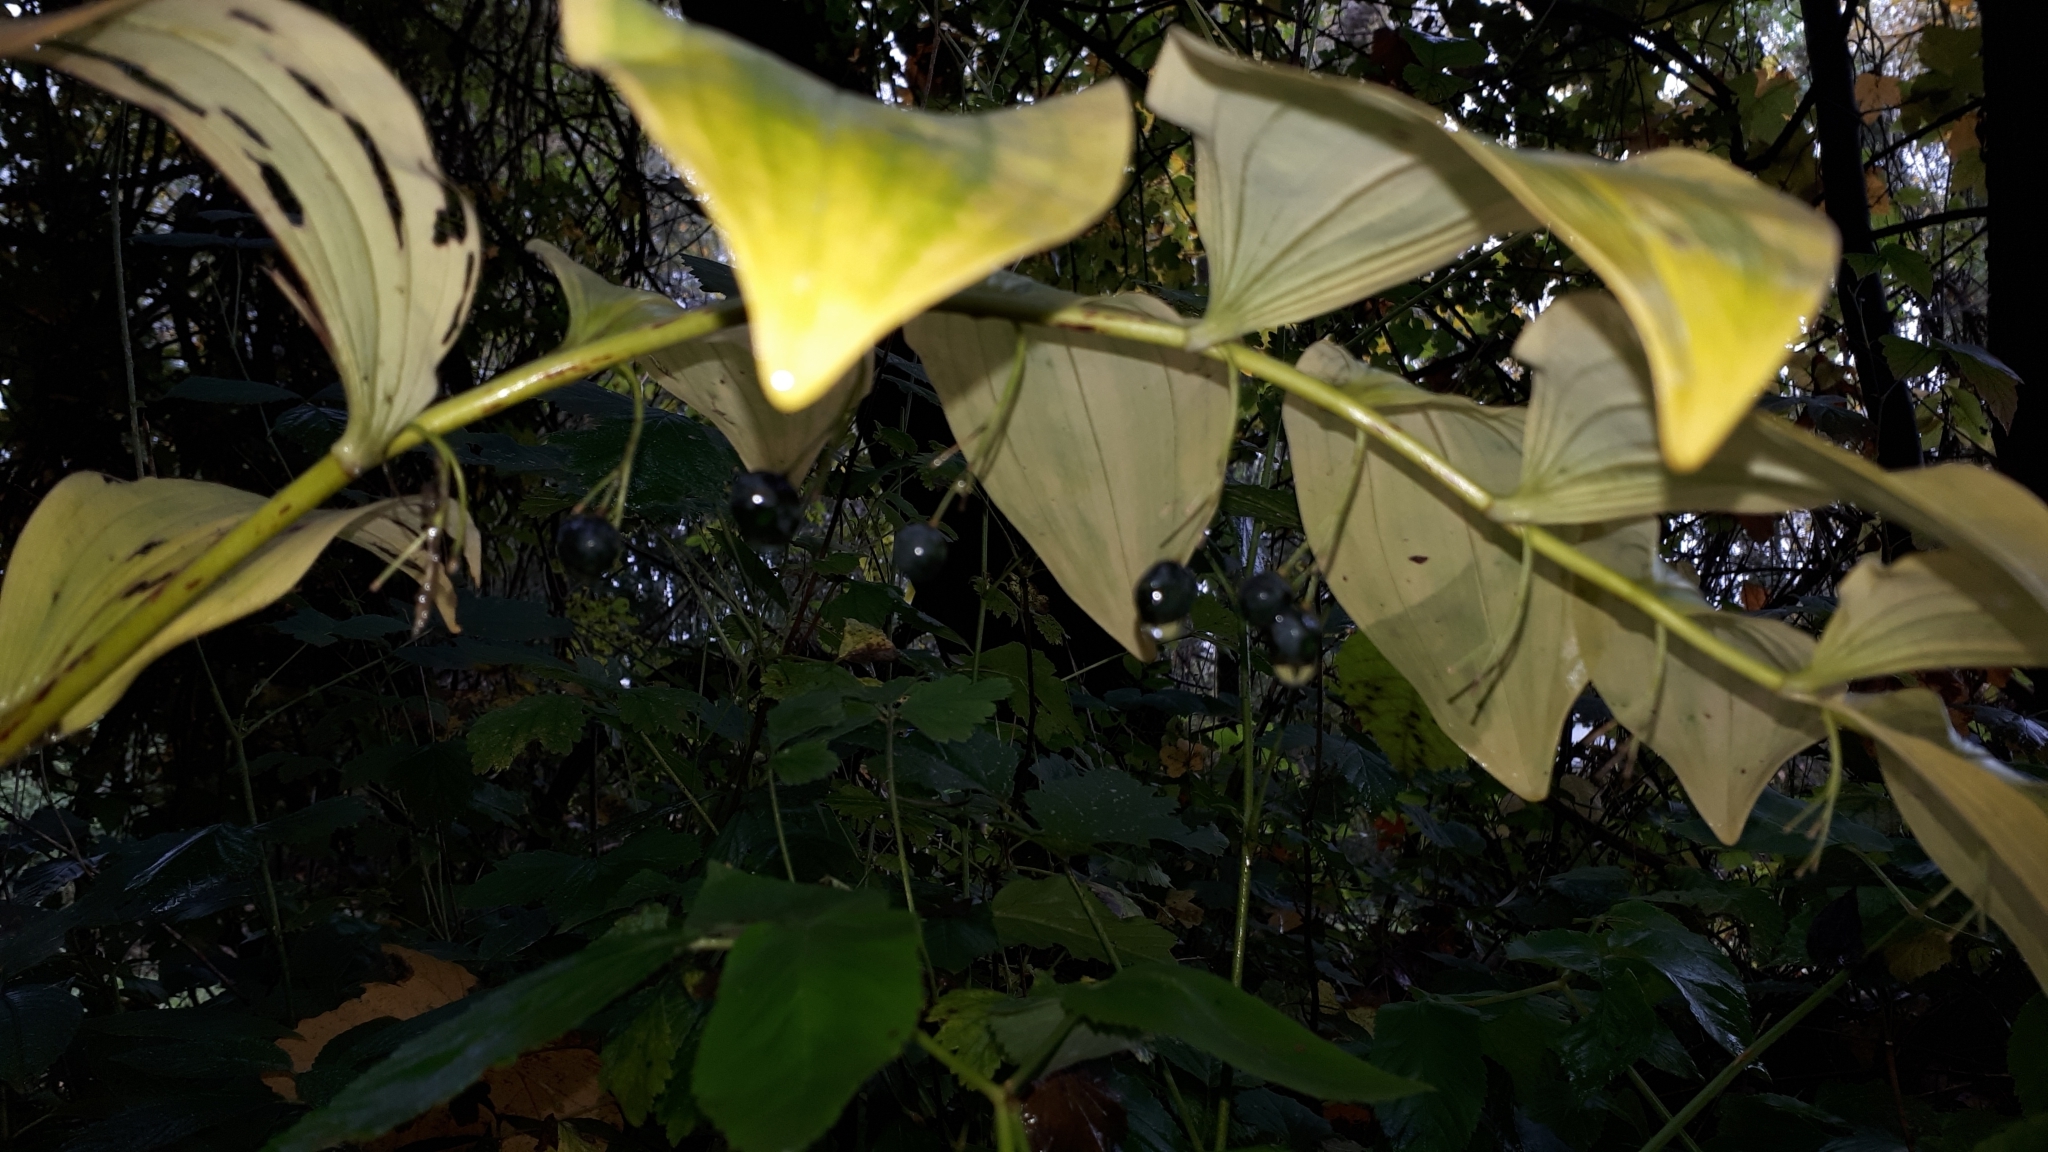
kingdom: Plantae
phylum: Tracheophyta
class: Liliopsida
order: Asparagales
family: Asparagaceae
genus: Polygonatum
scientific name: Polygonatum multiflorum
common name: Solomon's-seal
